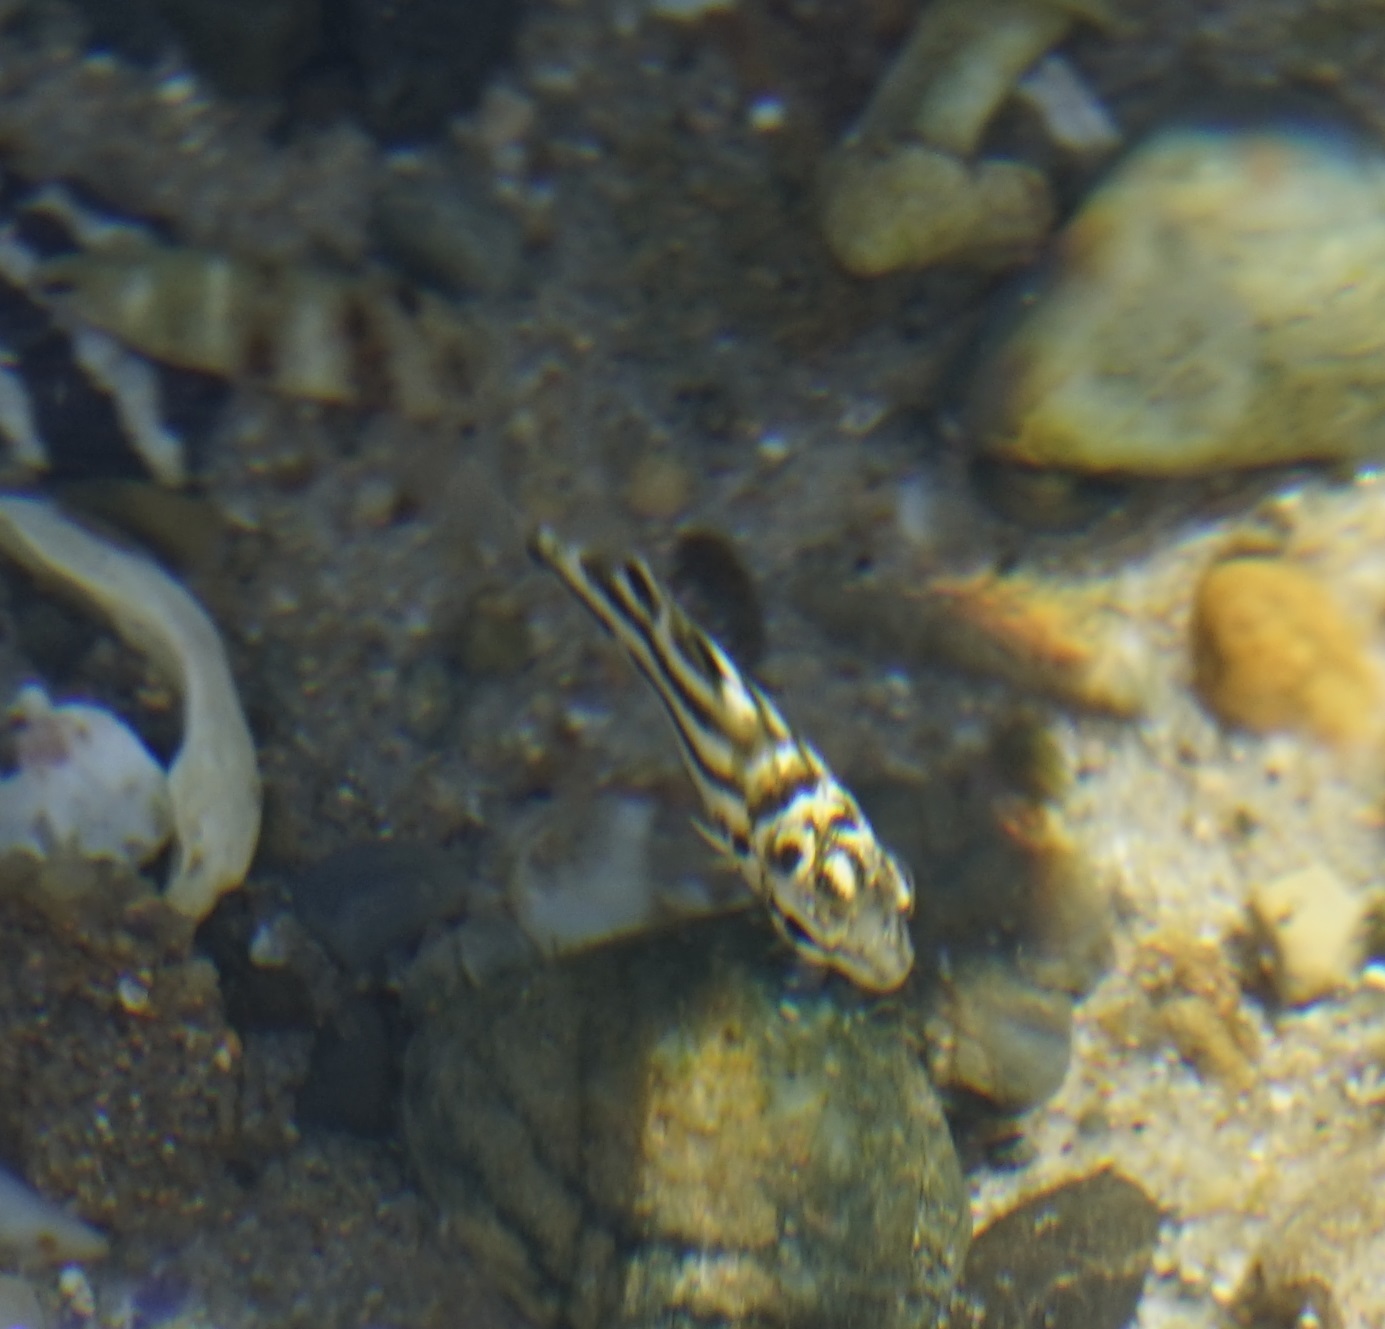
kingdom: Animalia
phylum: Chordata
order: Perciformes
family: Kyphosidae
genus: Microcanthus
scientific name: Microcanthus joyceae
